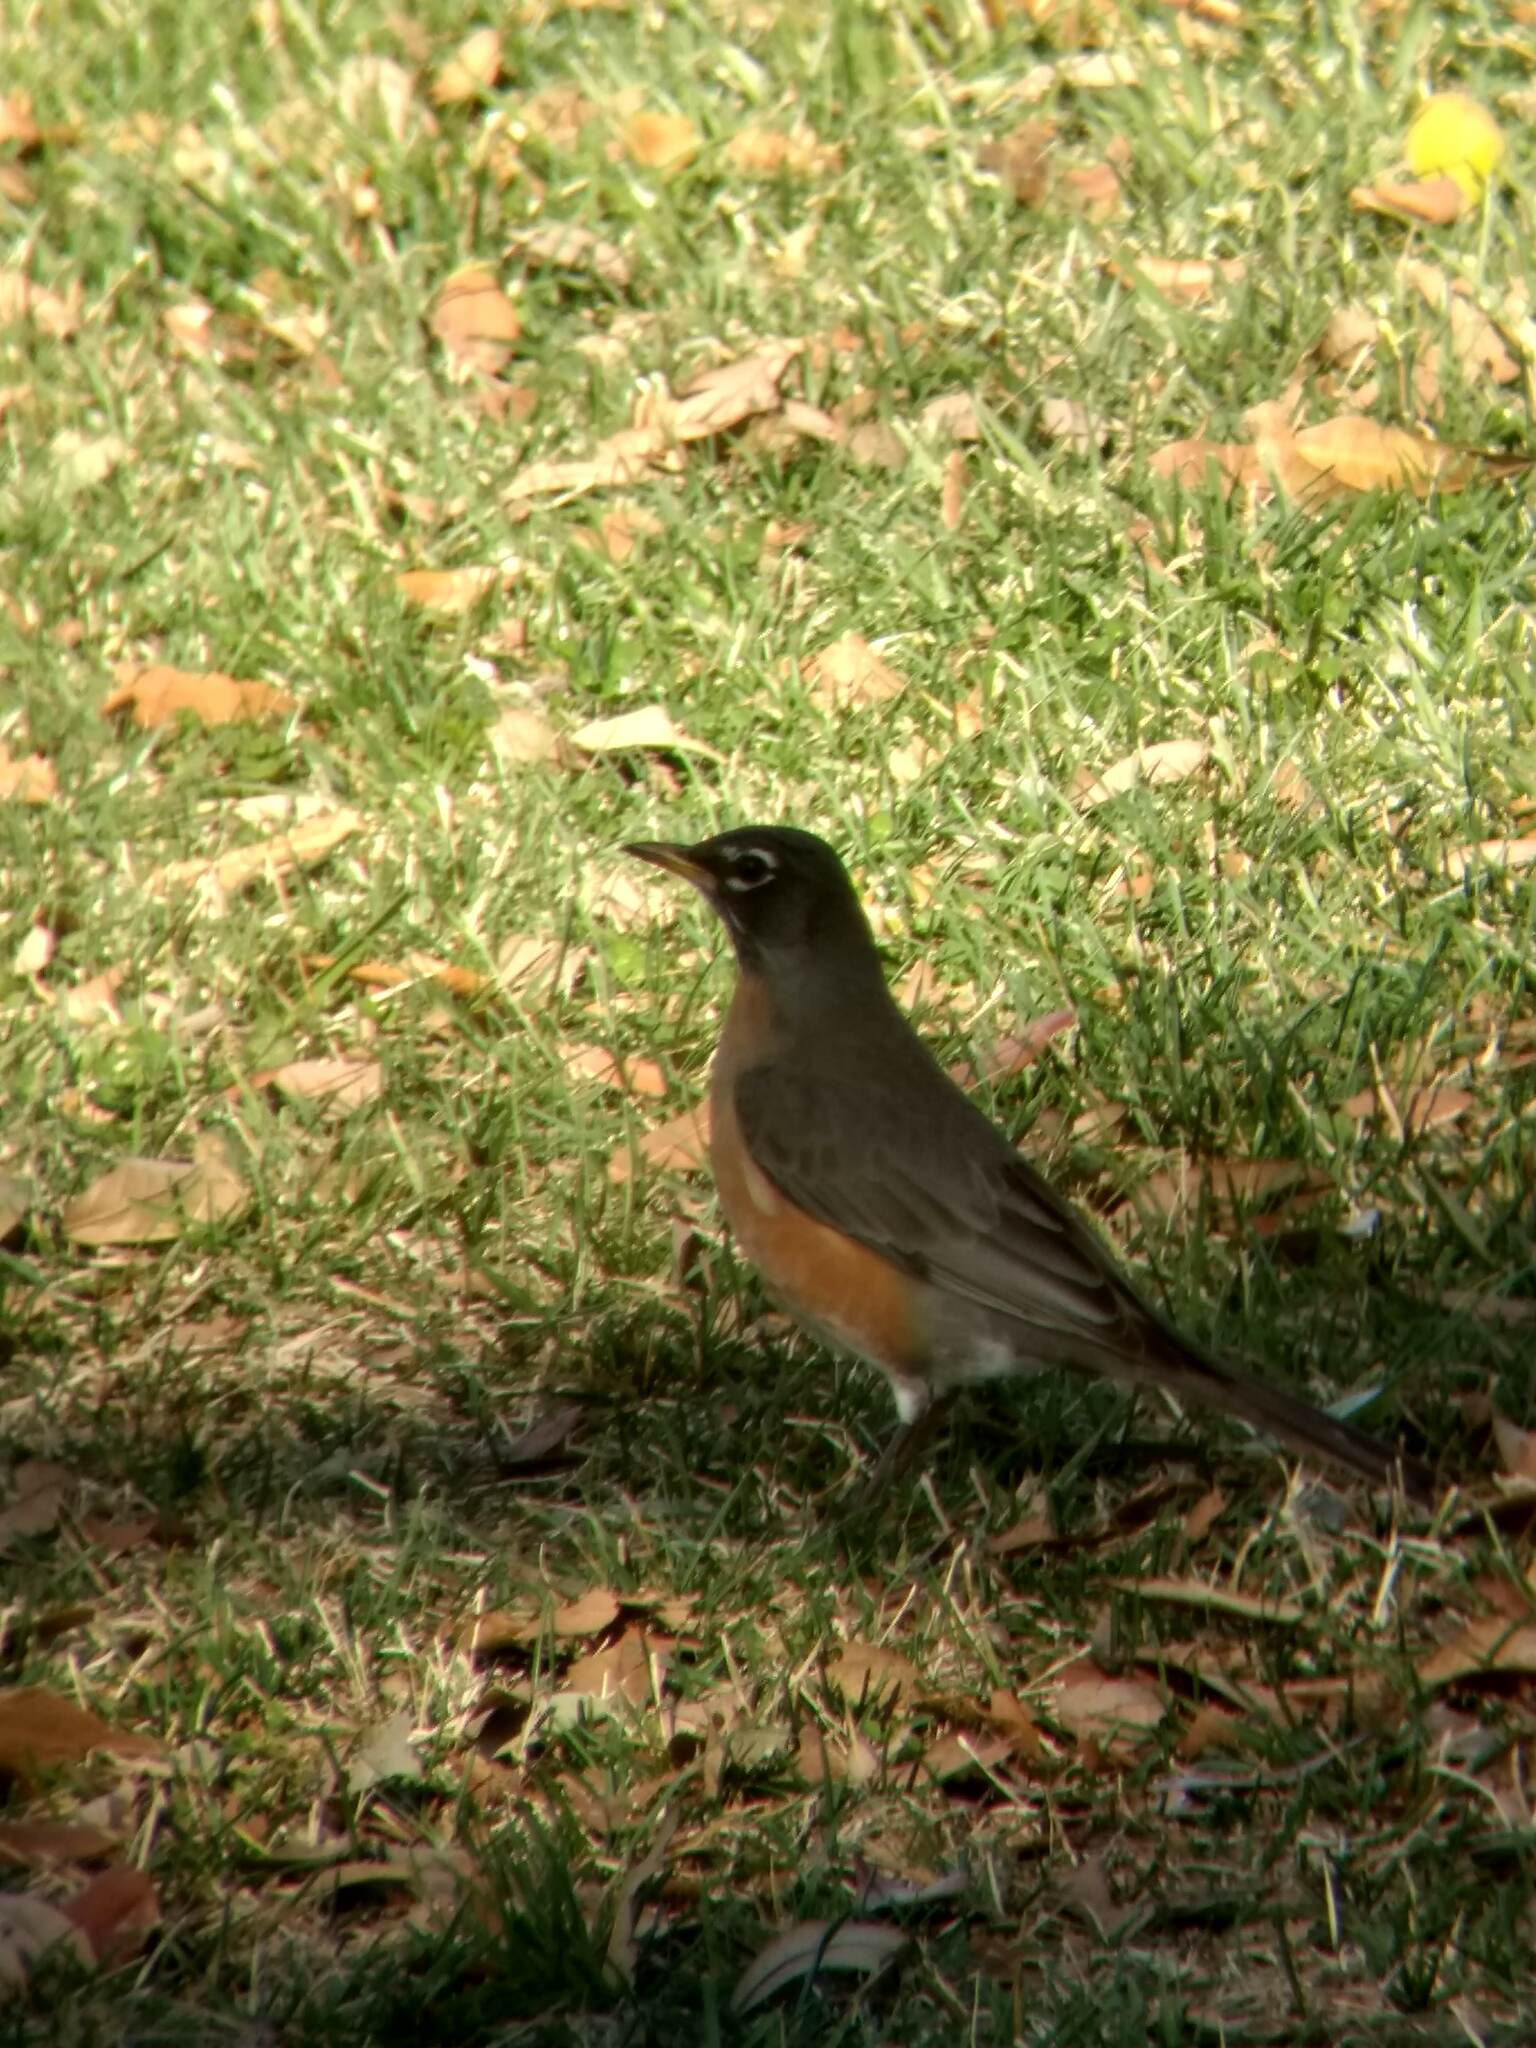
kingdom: Animalia
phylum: Chordata
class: Aves
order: Passeriformes
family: Turdidae
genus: Turdus
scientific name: Turdus migratorius
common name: American robin
